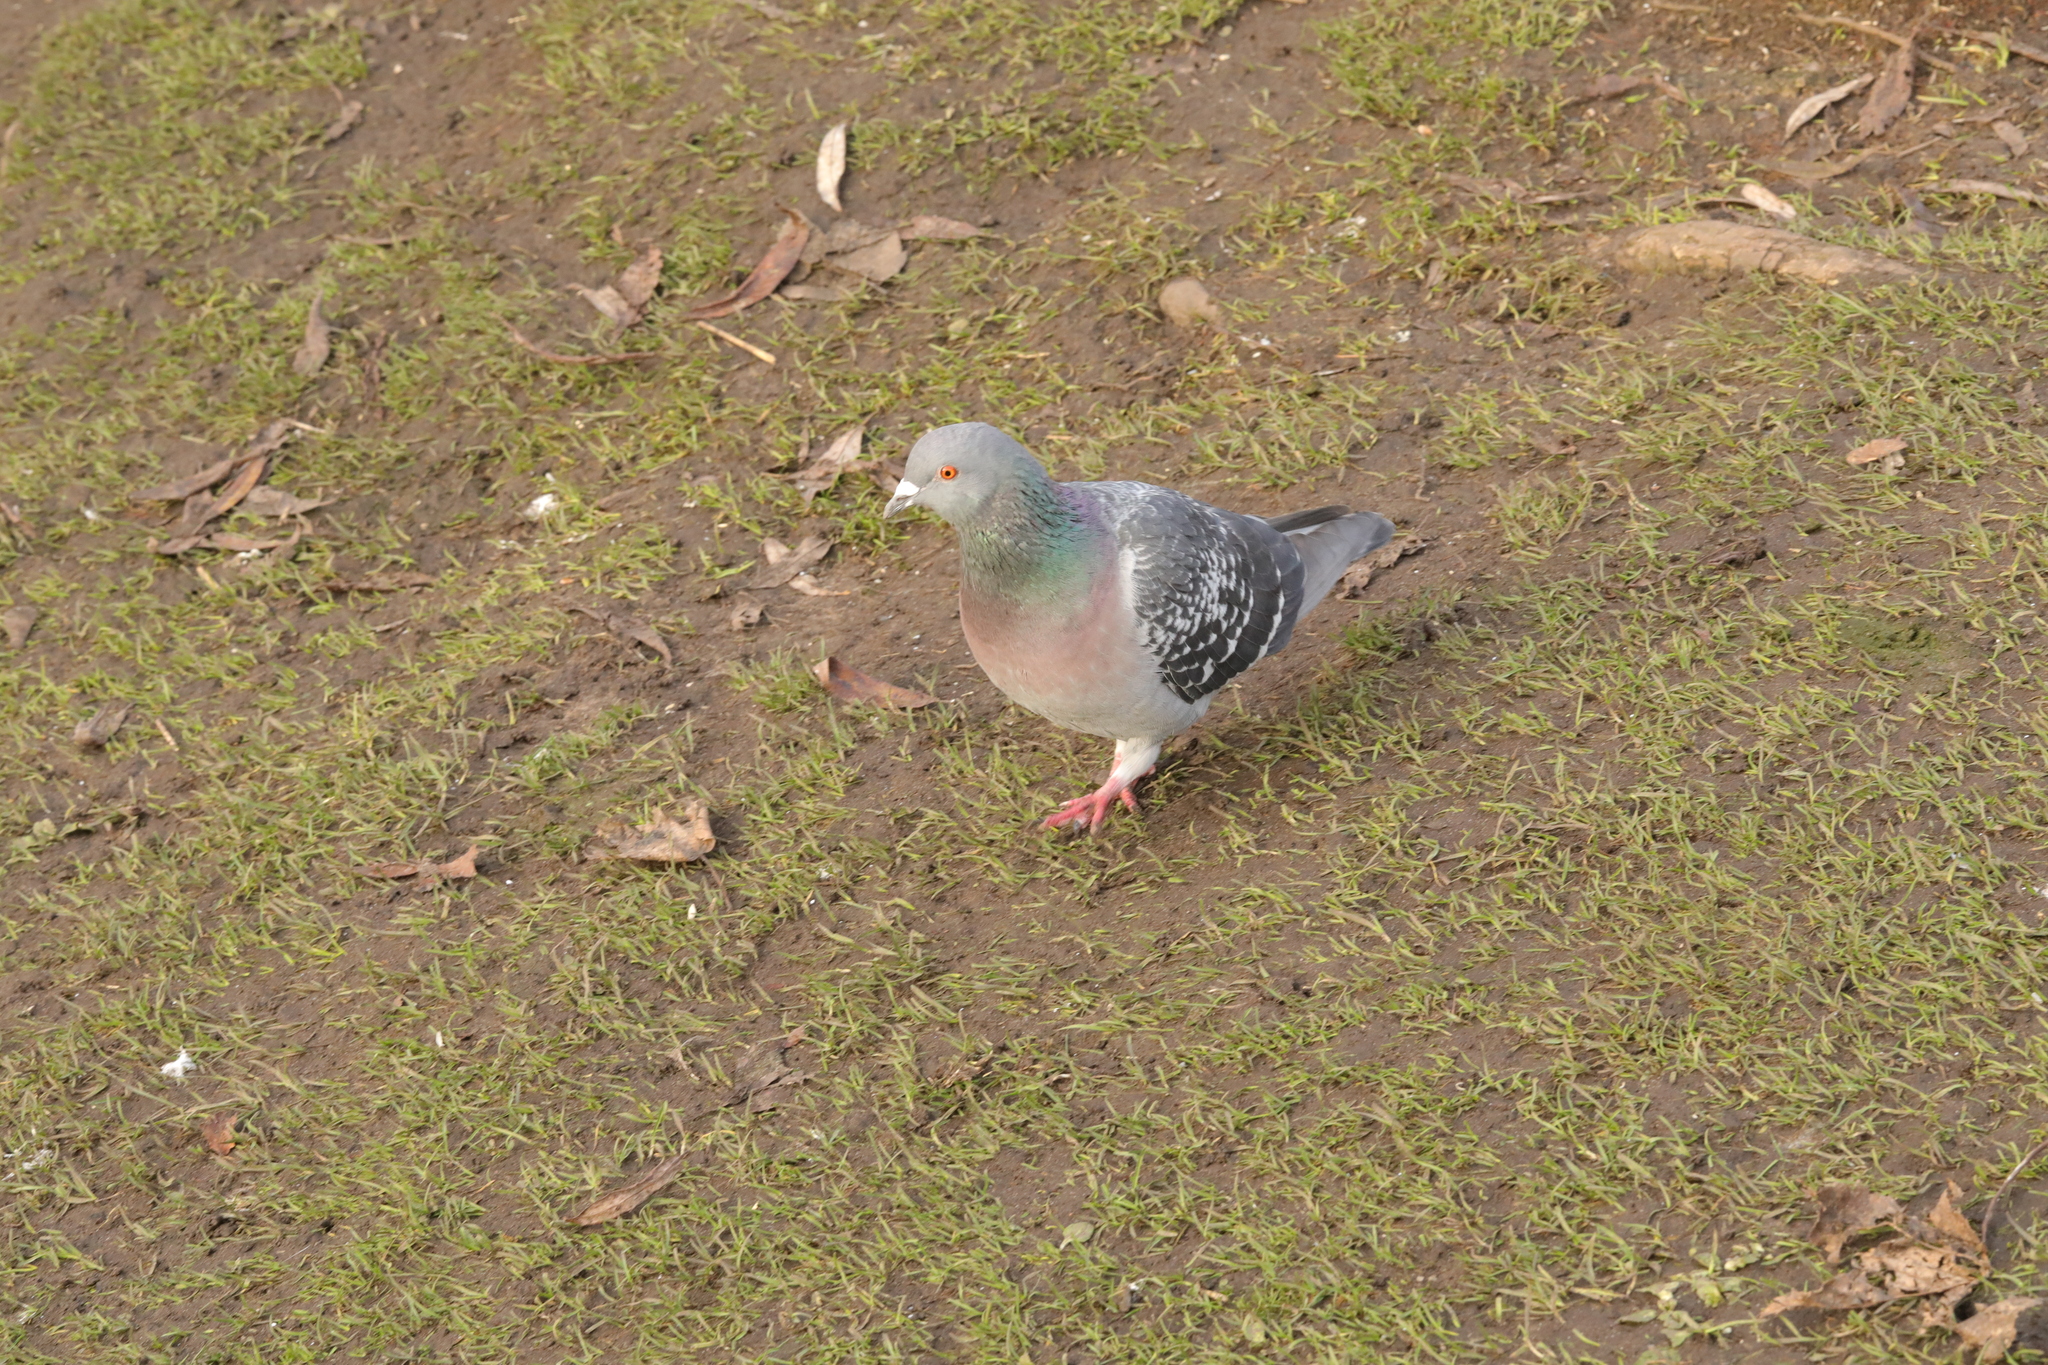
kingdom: Animalia
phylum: Chordata
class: Aves
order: Columbiformes
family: Columbidae
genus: Columba
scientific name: Columba livia
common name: Rock pigeon
